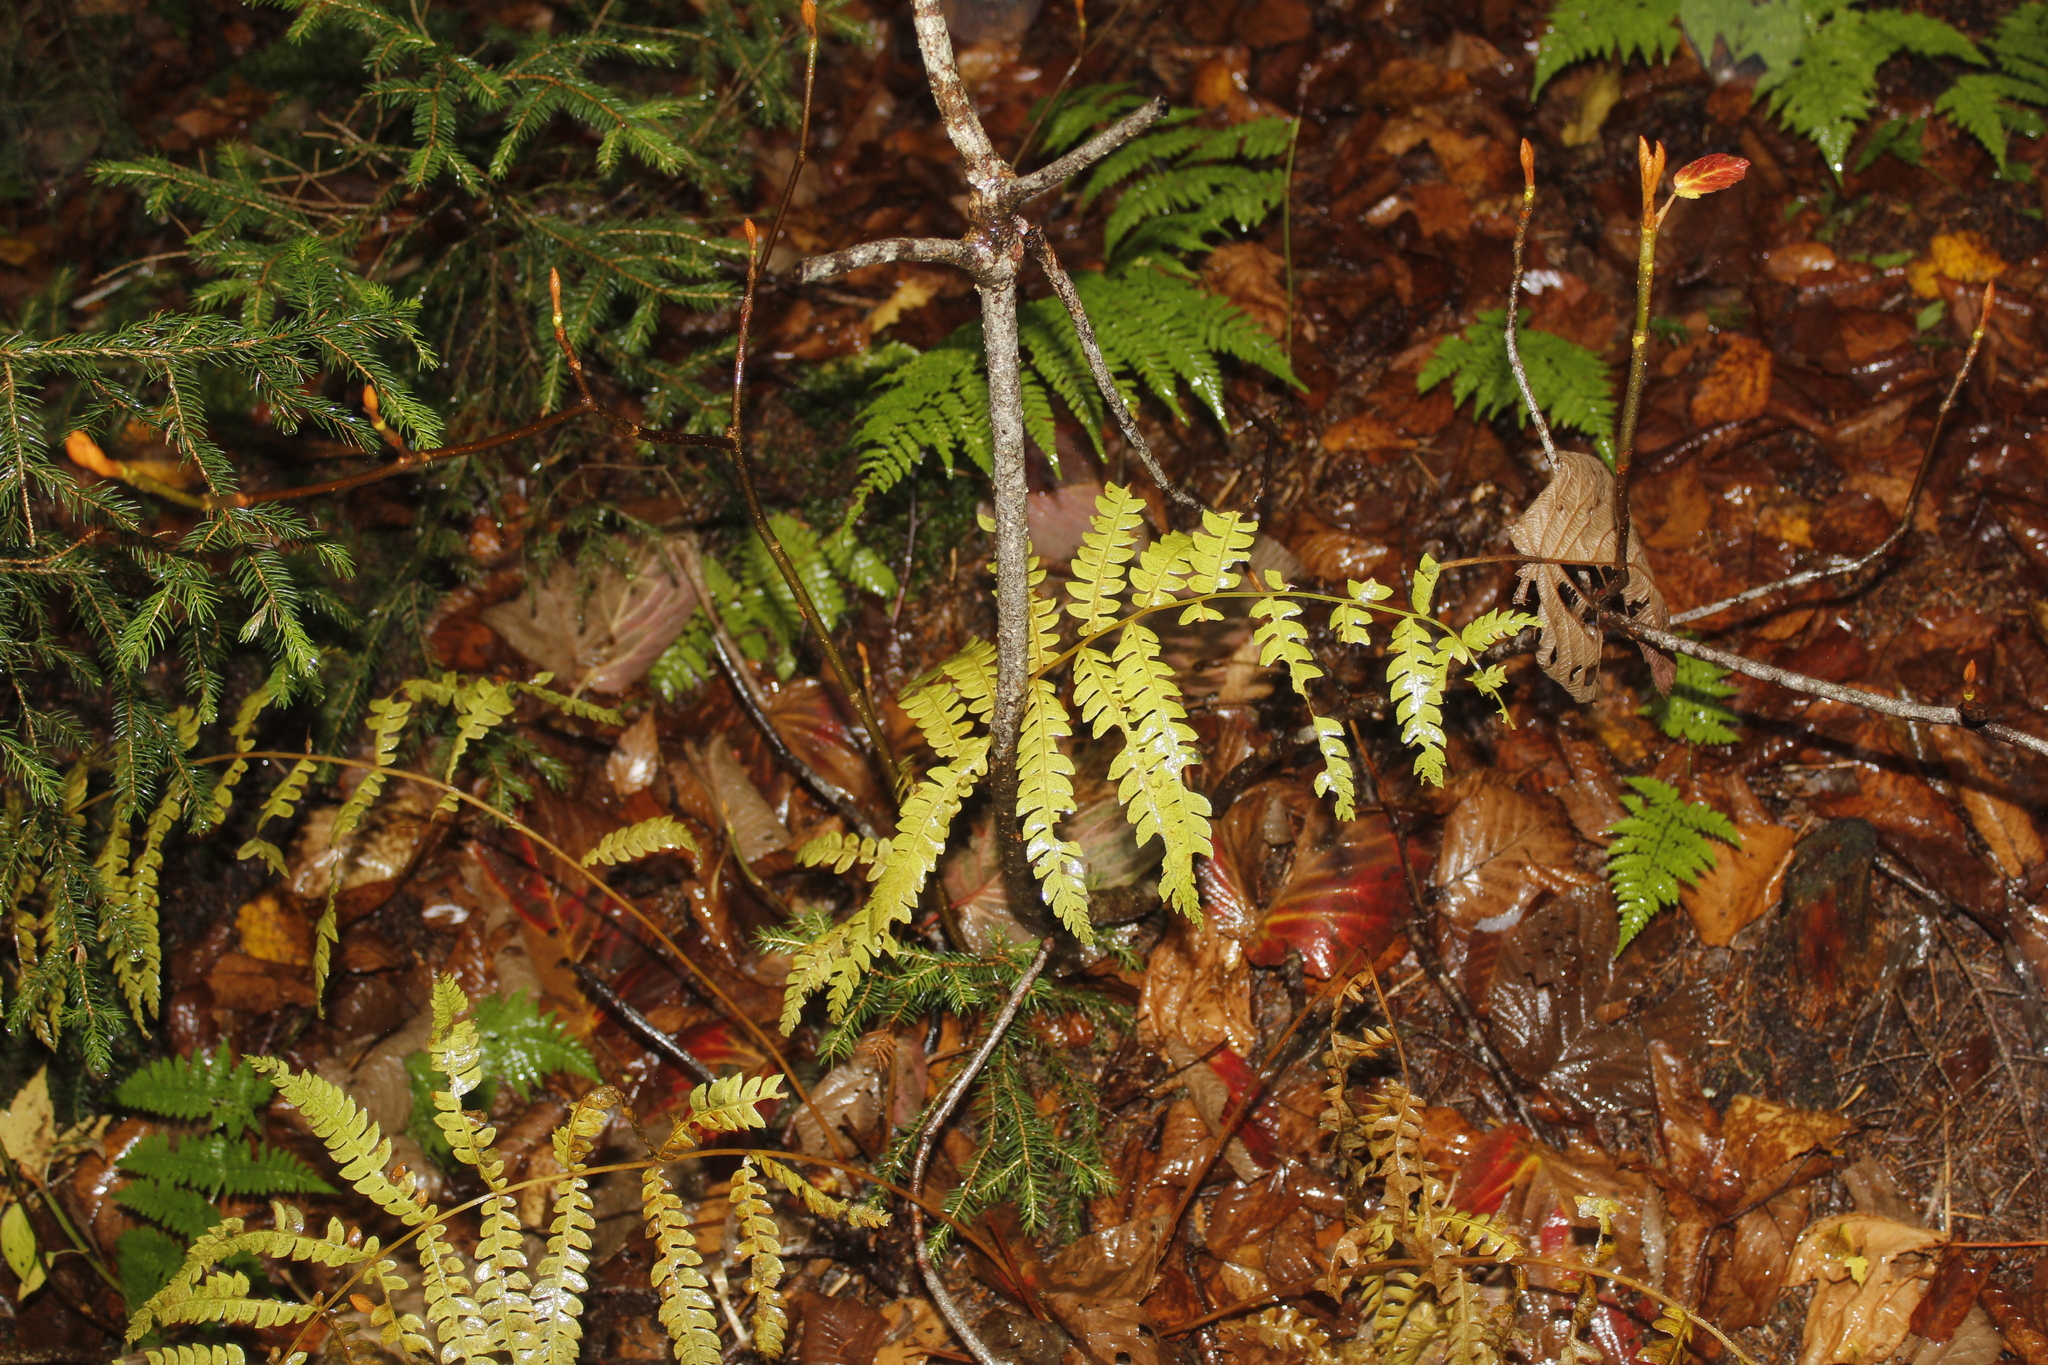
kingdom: Plantae
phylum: Tracheophyta
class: Polypodiopsida
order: Osmundales
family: Osmundaceae
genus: Osmundastrum
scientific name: Osmundastrum cinnamomeum
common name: Cinnamon fern
